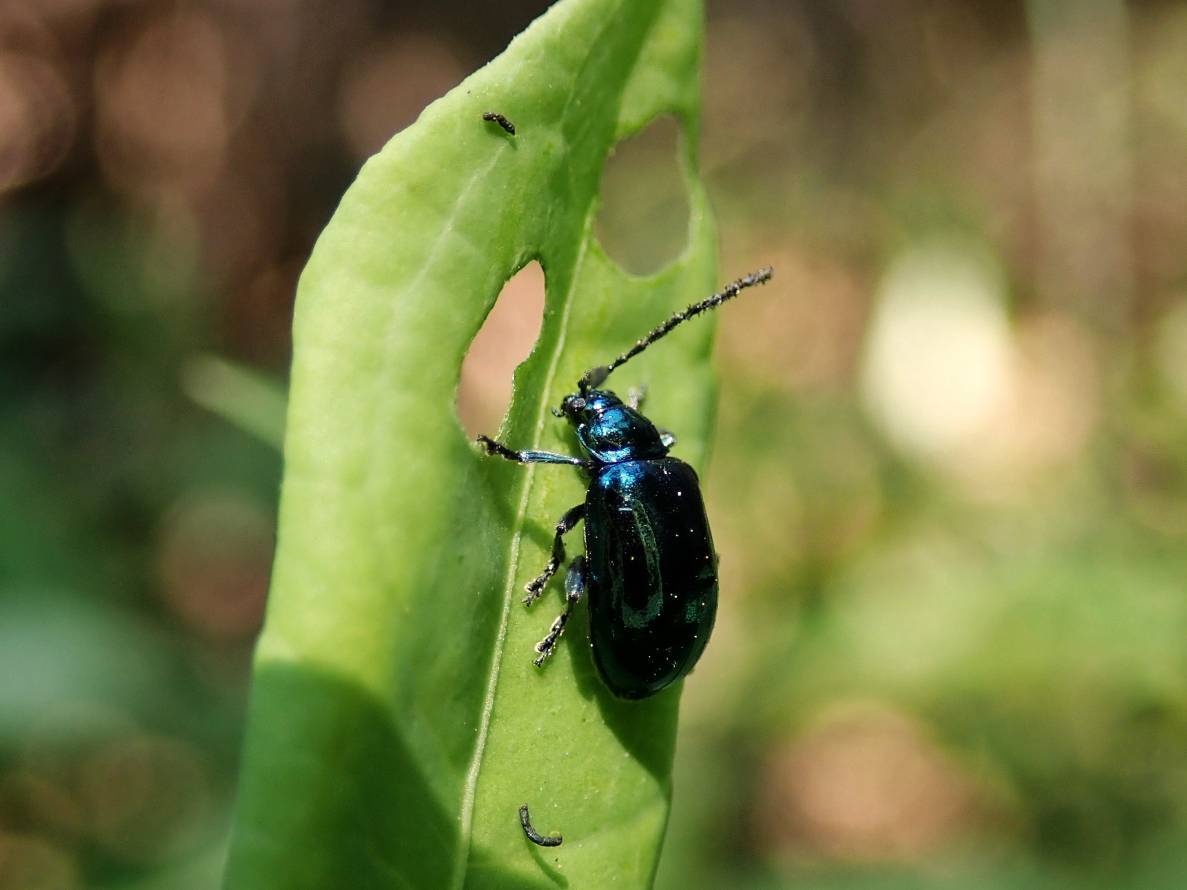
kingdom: Animalia
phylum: Arthropoda
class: Insecta
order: Coleoptera
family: Chrysomelidae
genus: Altica
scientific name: Altica birmanensis
